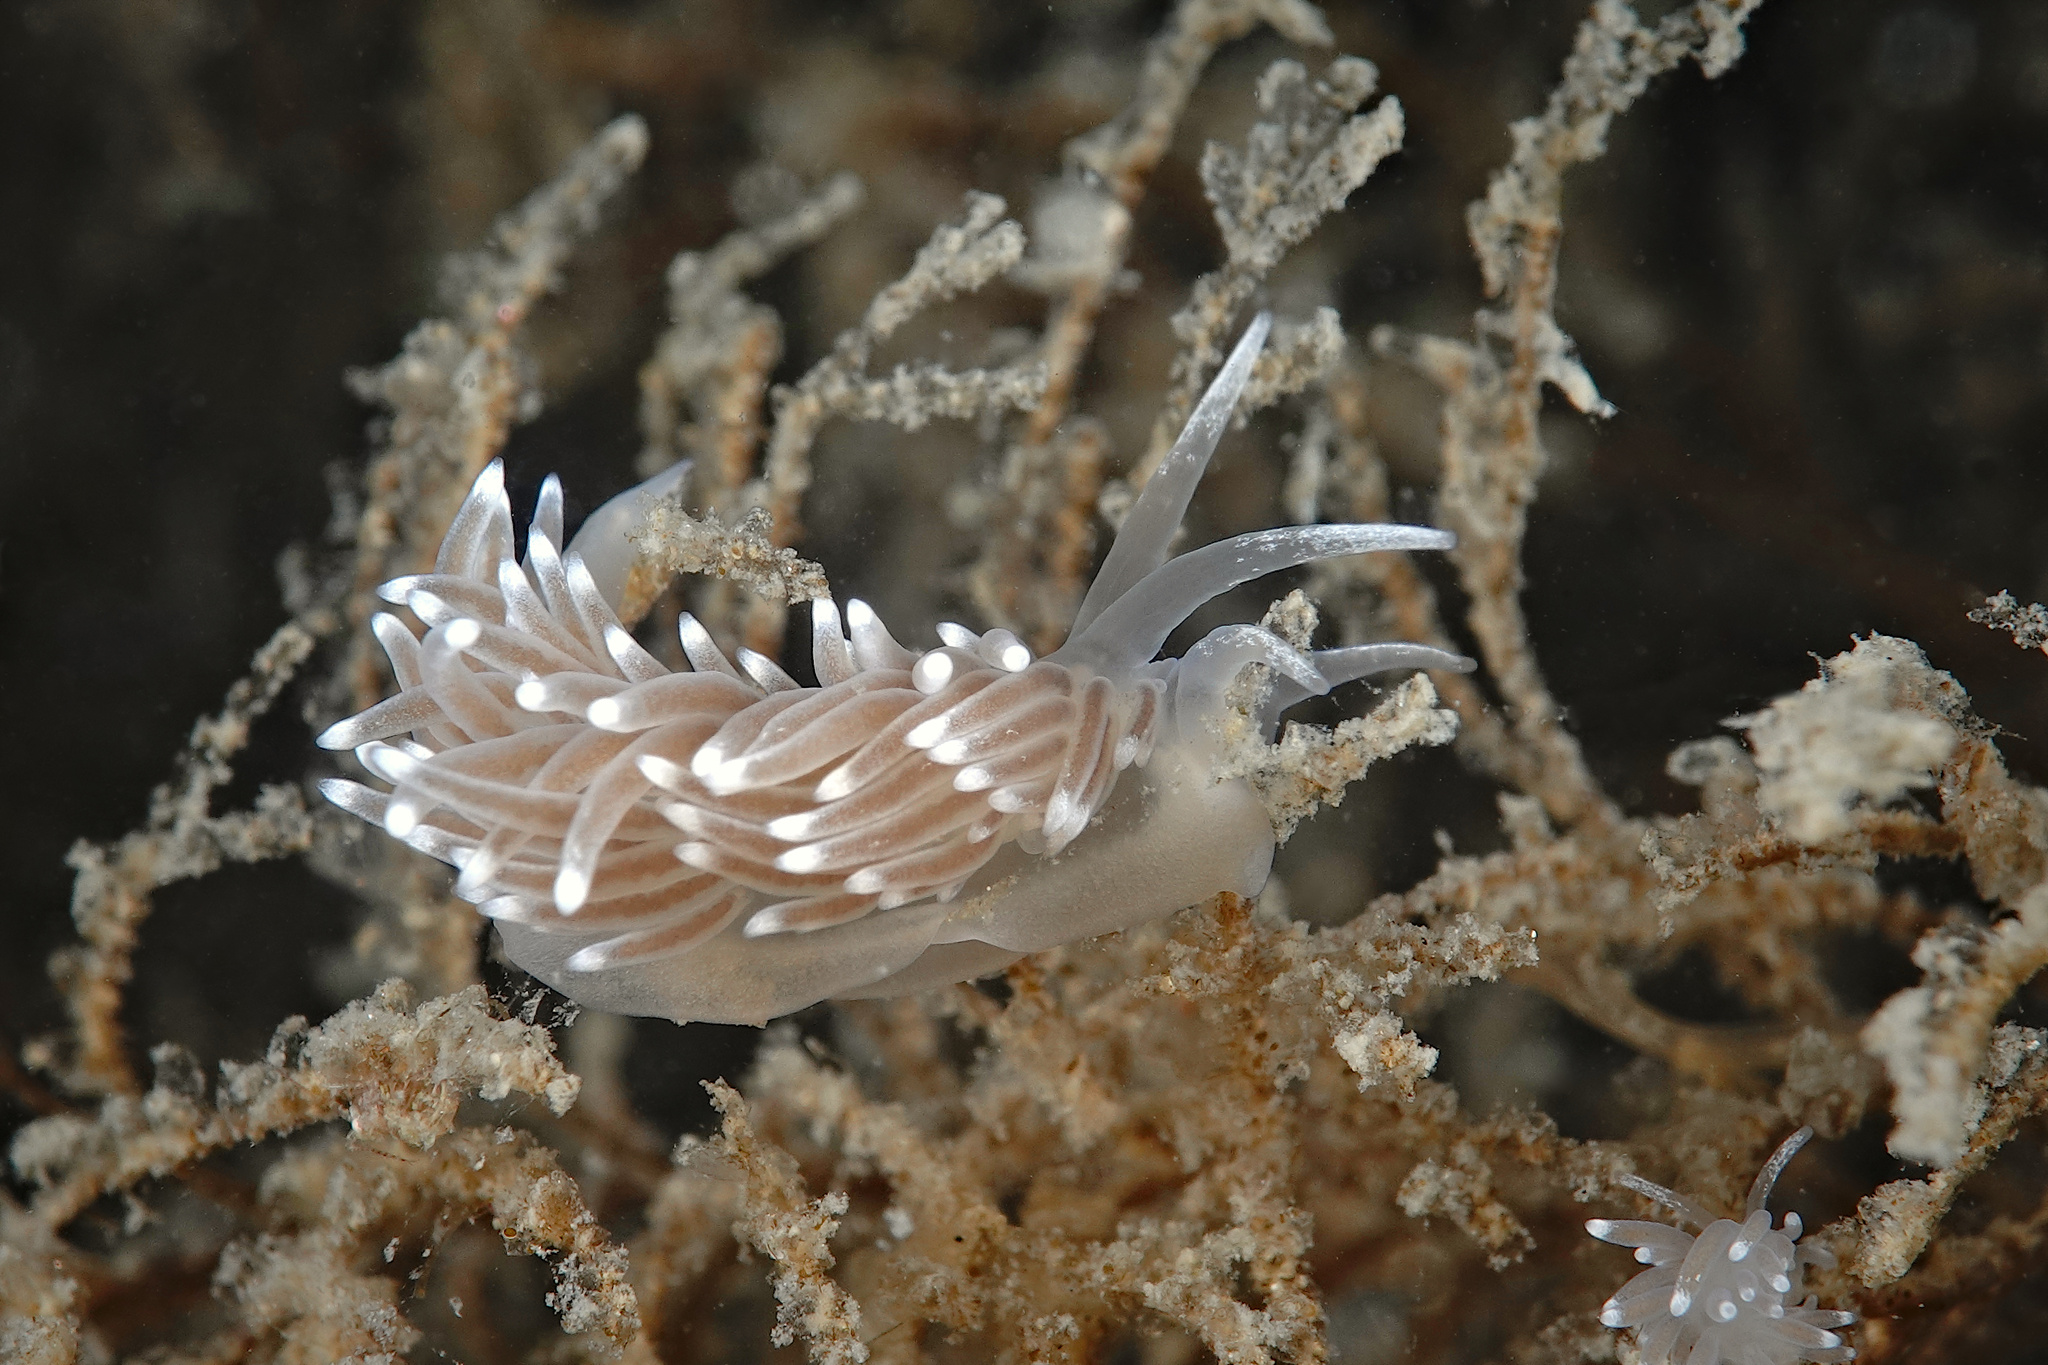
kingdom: Animalia
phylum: Mollusca
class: Gastropoda
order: Nudibranchia
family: Cuthonellidae
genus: Cuthonella
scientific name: Cuthonella concinna
